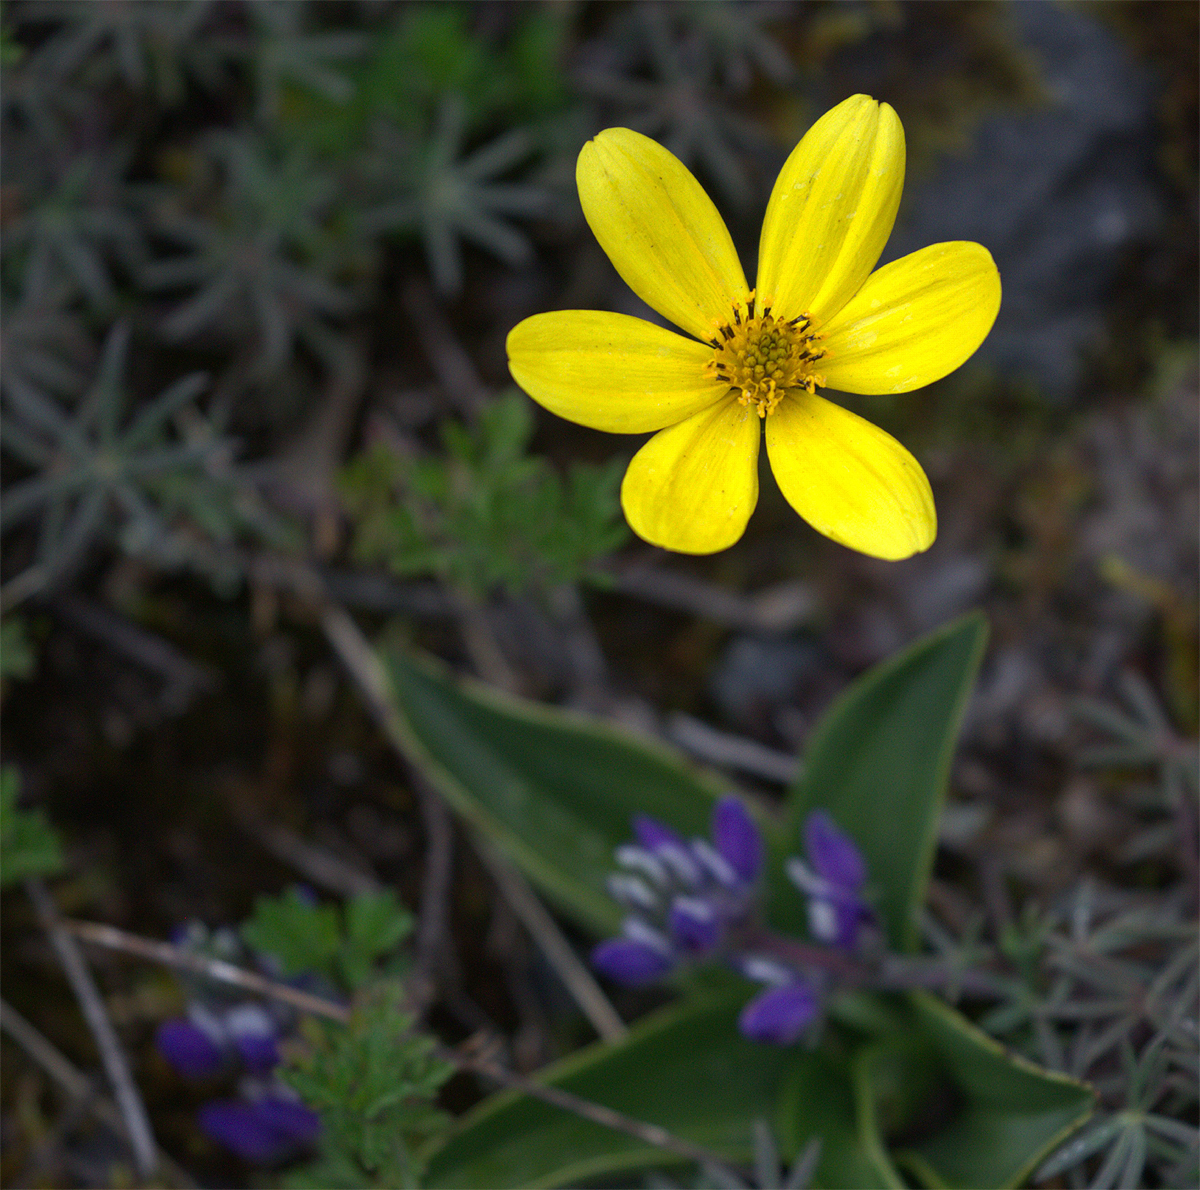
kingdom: Plantae
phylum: Tracheophyta
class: Magnoliopsida
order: Asterales
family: Asteraceae
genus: Bidens
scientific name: Bidens andicola
